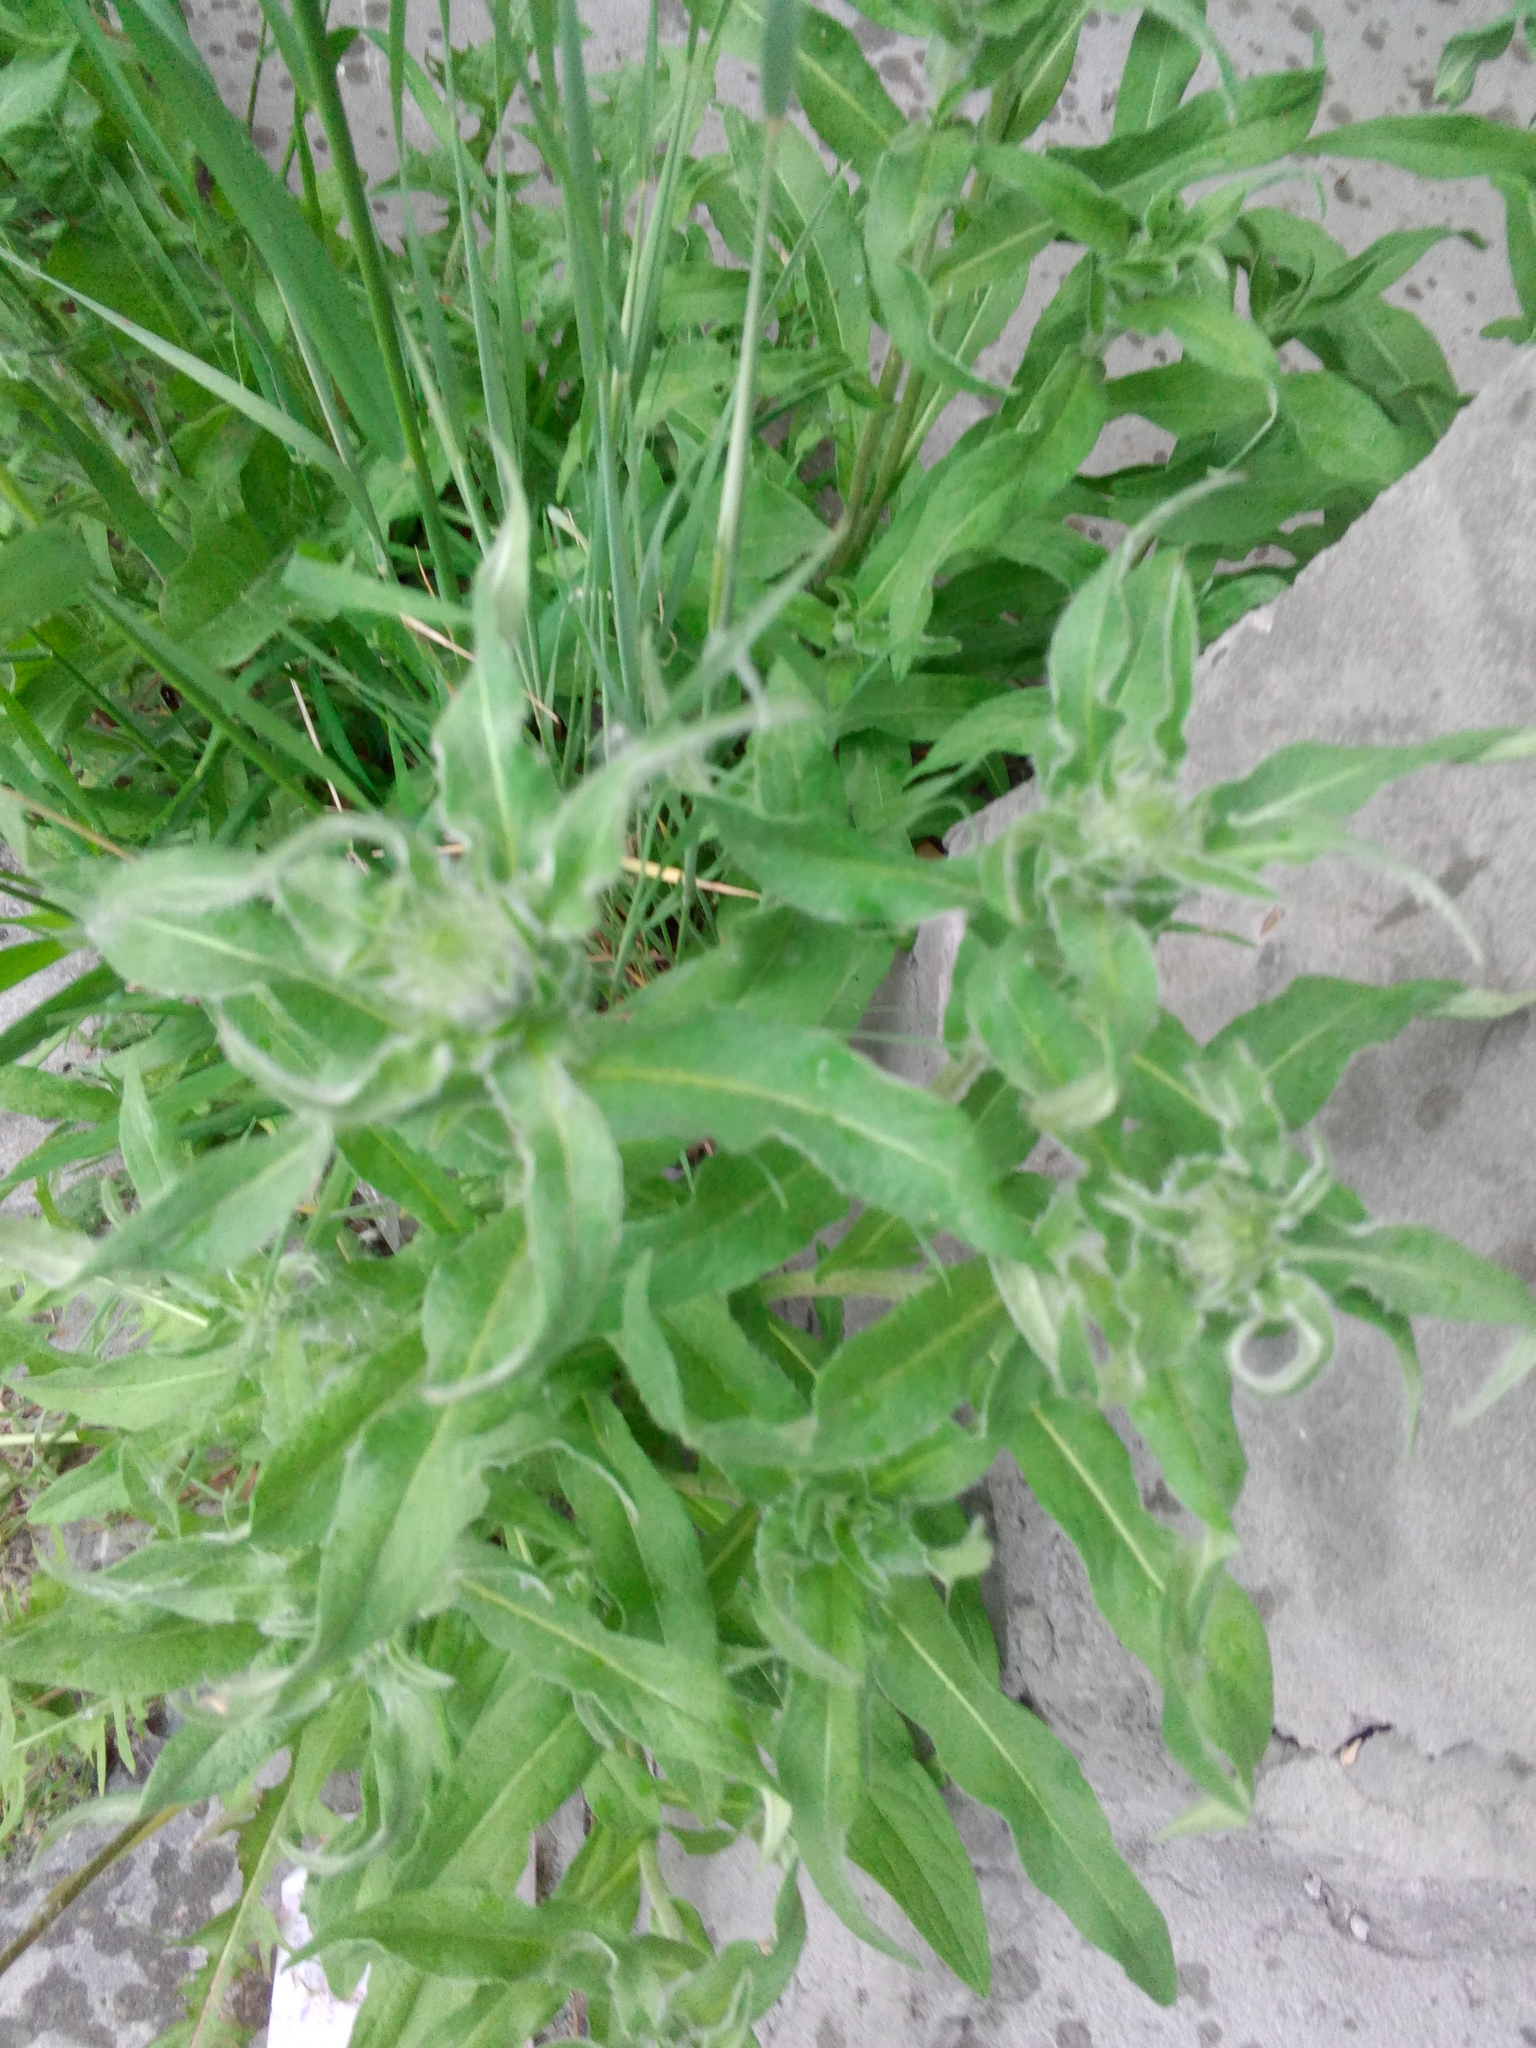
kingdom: Plantae
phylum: Tracheophyta
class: Magnoliopsida
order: Asterales
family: Asteraceae
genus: Pentanema
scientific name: Pentanema britannicum
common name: British elecampane
